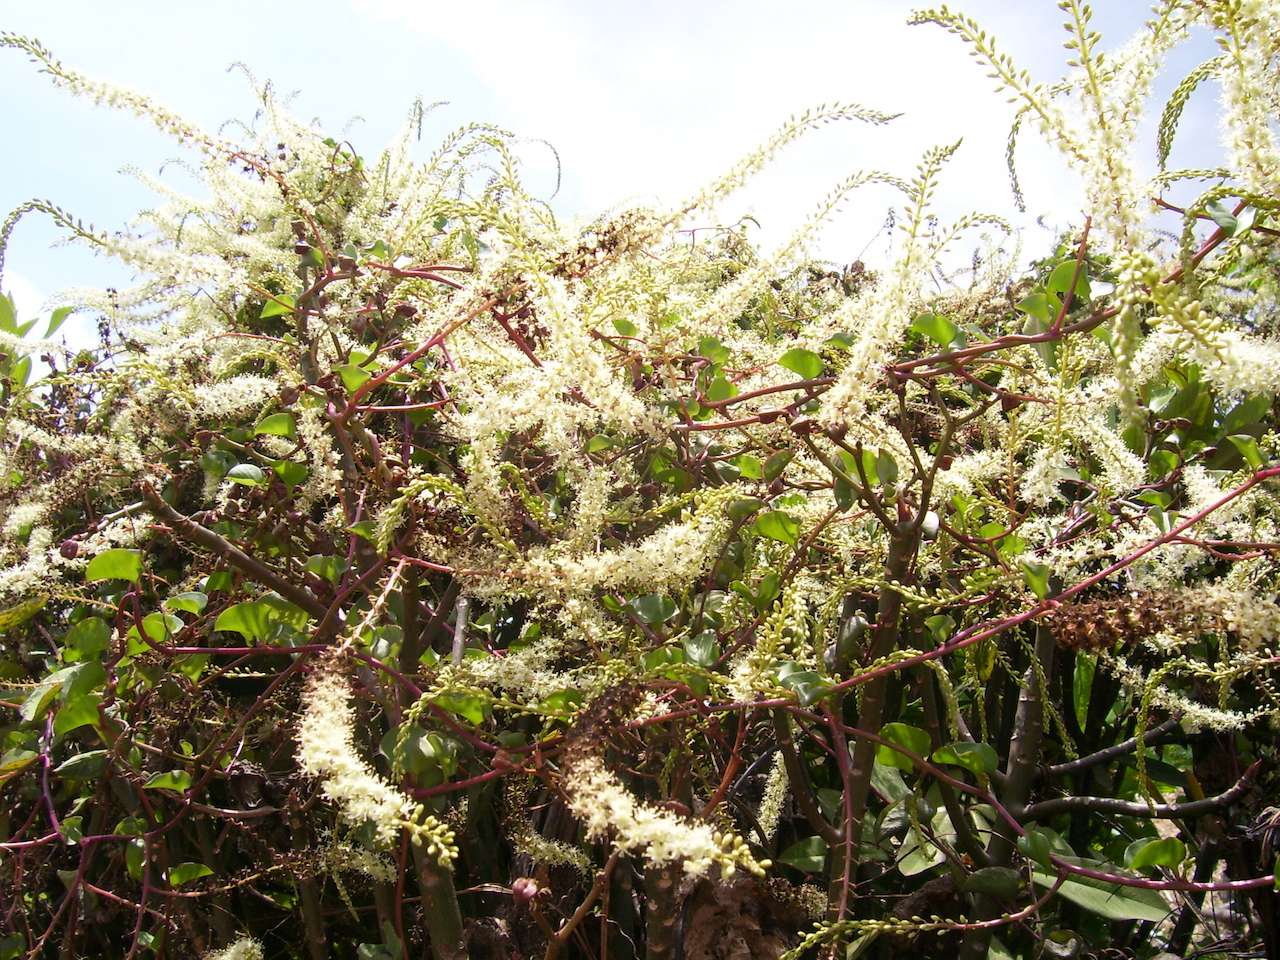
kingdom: Plantae
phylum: Tracheophyta
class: Magnoliopsida
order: Caryophyllales
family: Basellaceae
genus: Anredera
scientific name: Anredera cordifolia
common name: Heartleaf madeiravine
